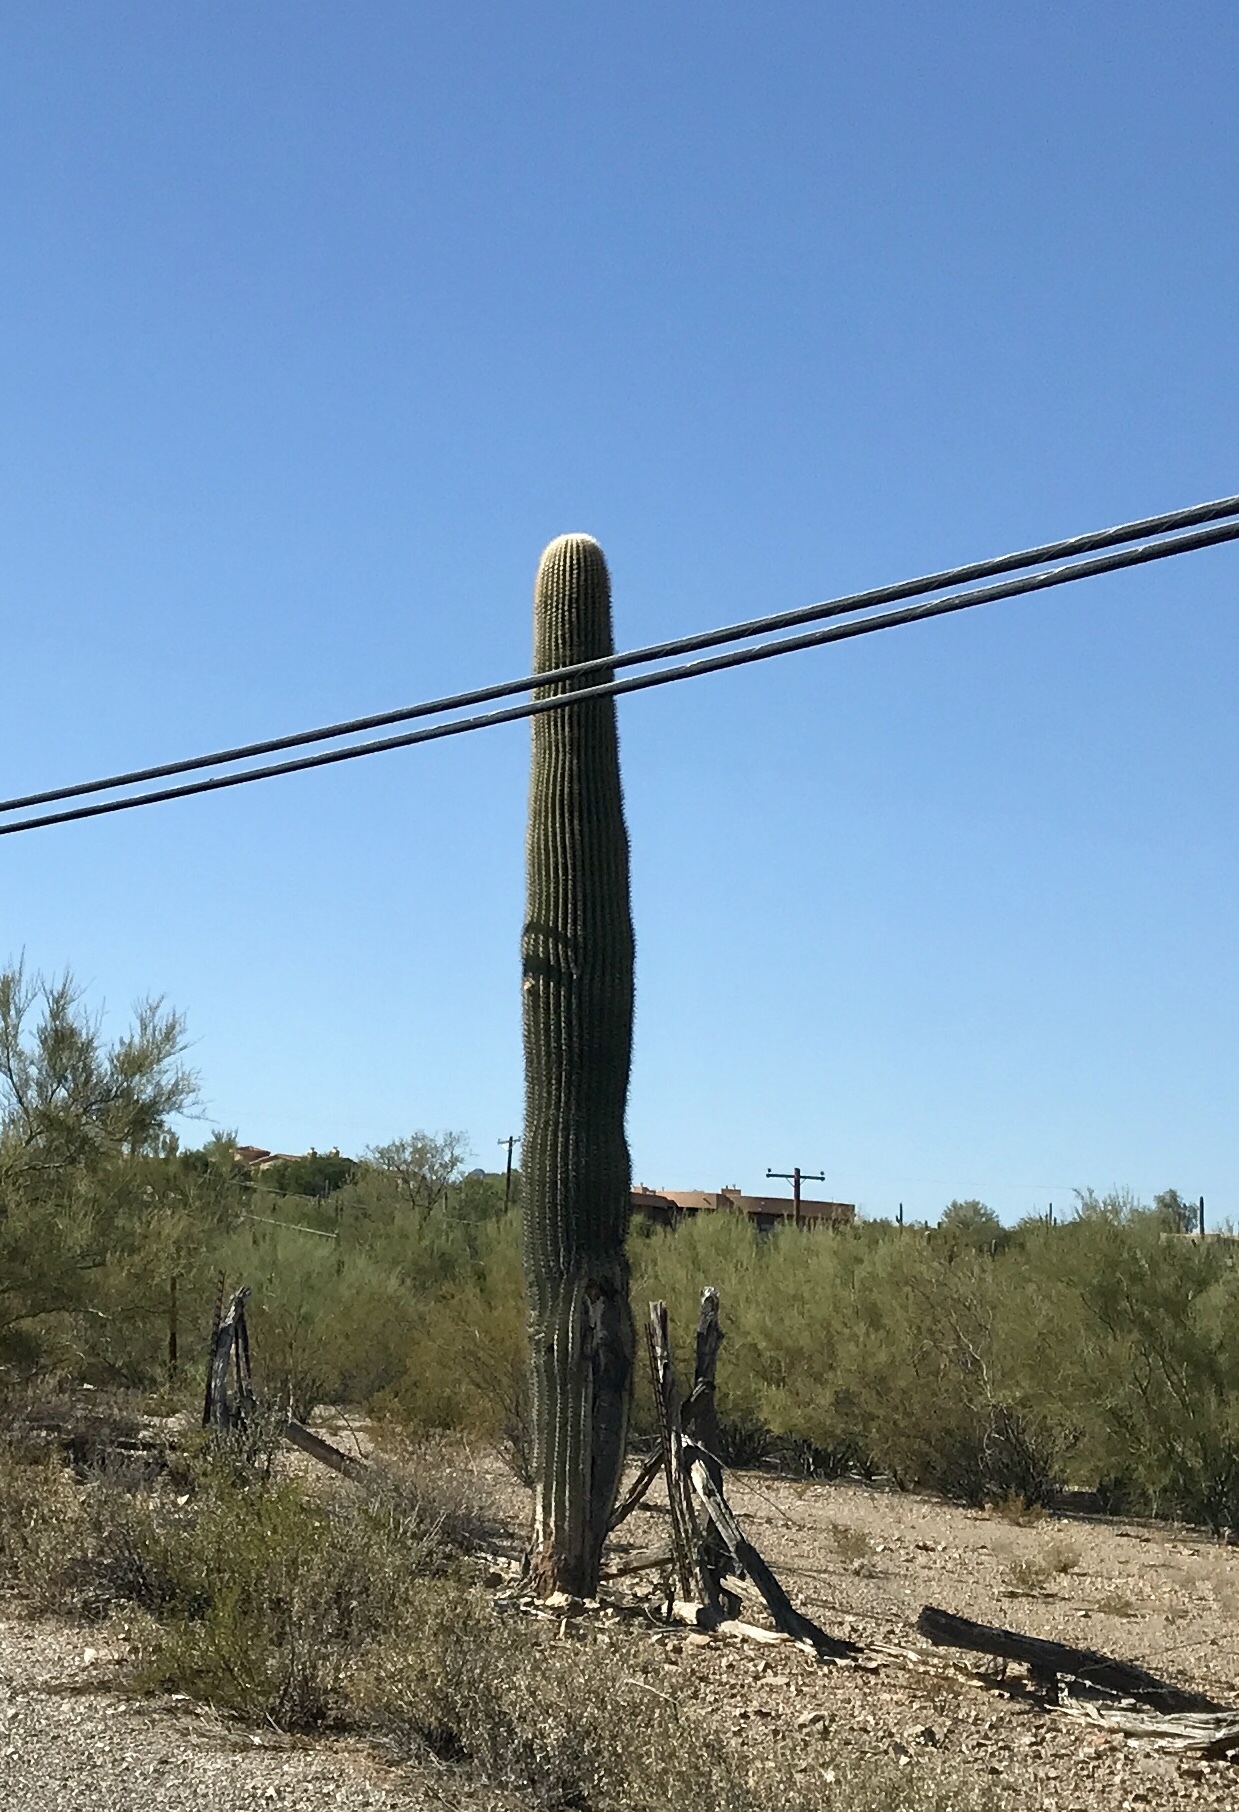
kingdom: Plantae
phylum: Tracheophyta
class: Magnoliopsida
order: Caryophyllales
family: Cactaceae
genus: Carnegiea
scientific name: Carnegiea gigantea
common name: Saguaro
